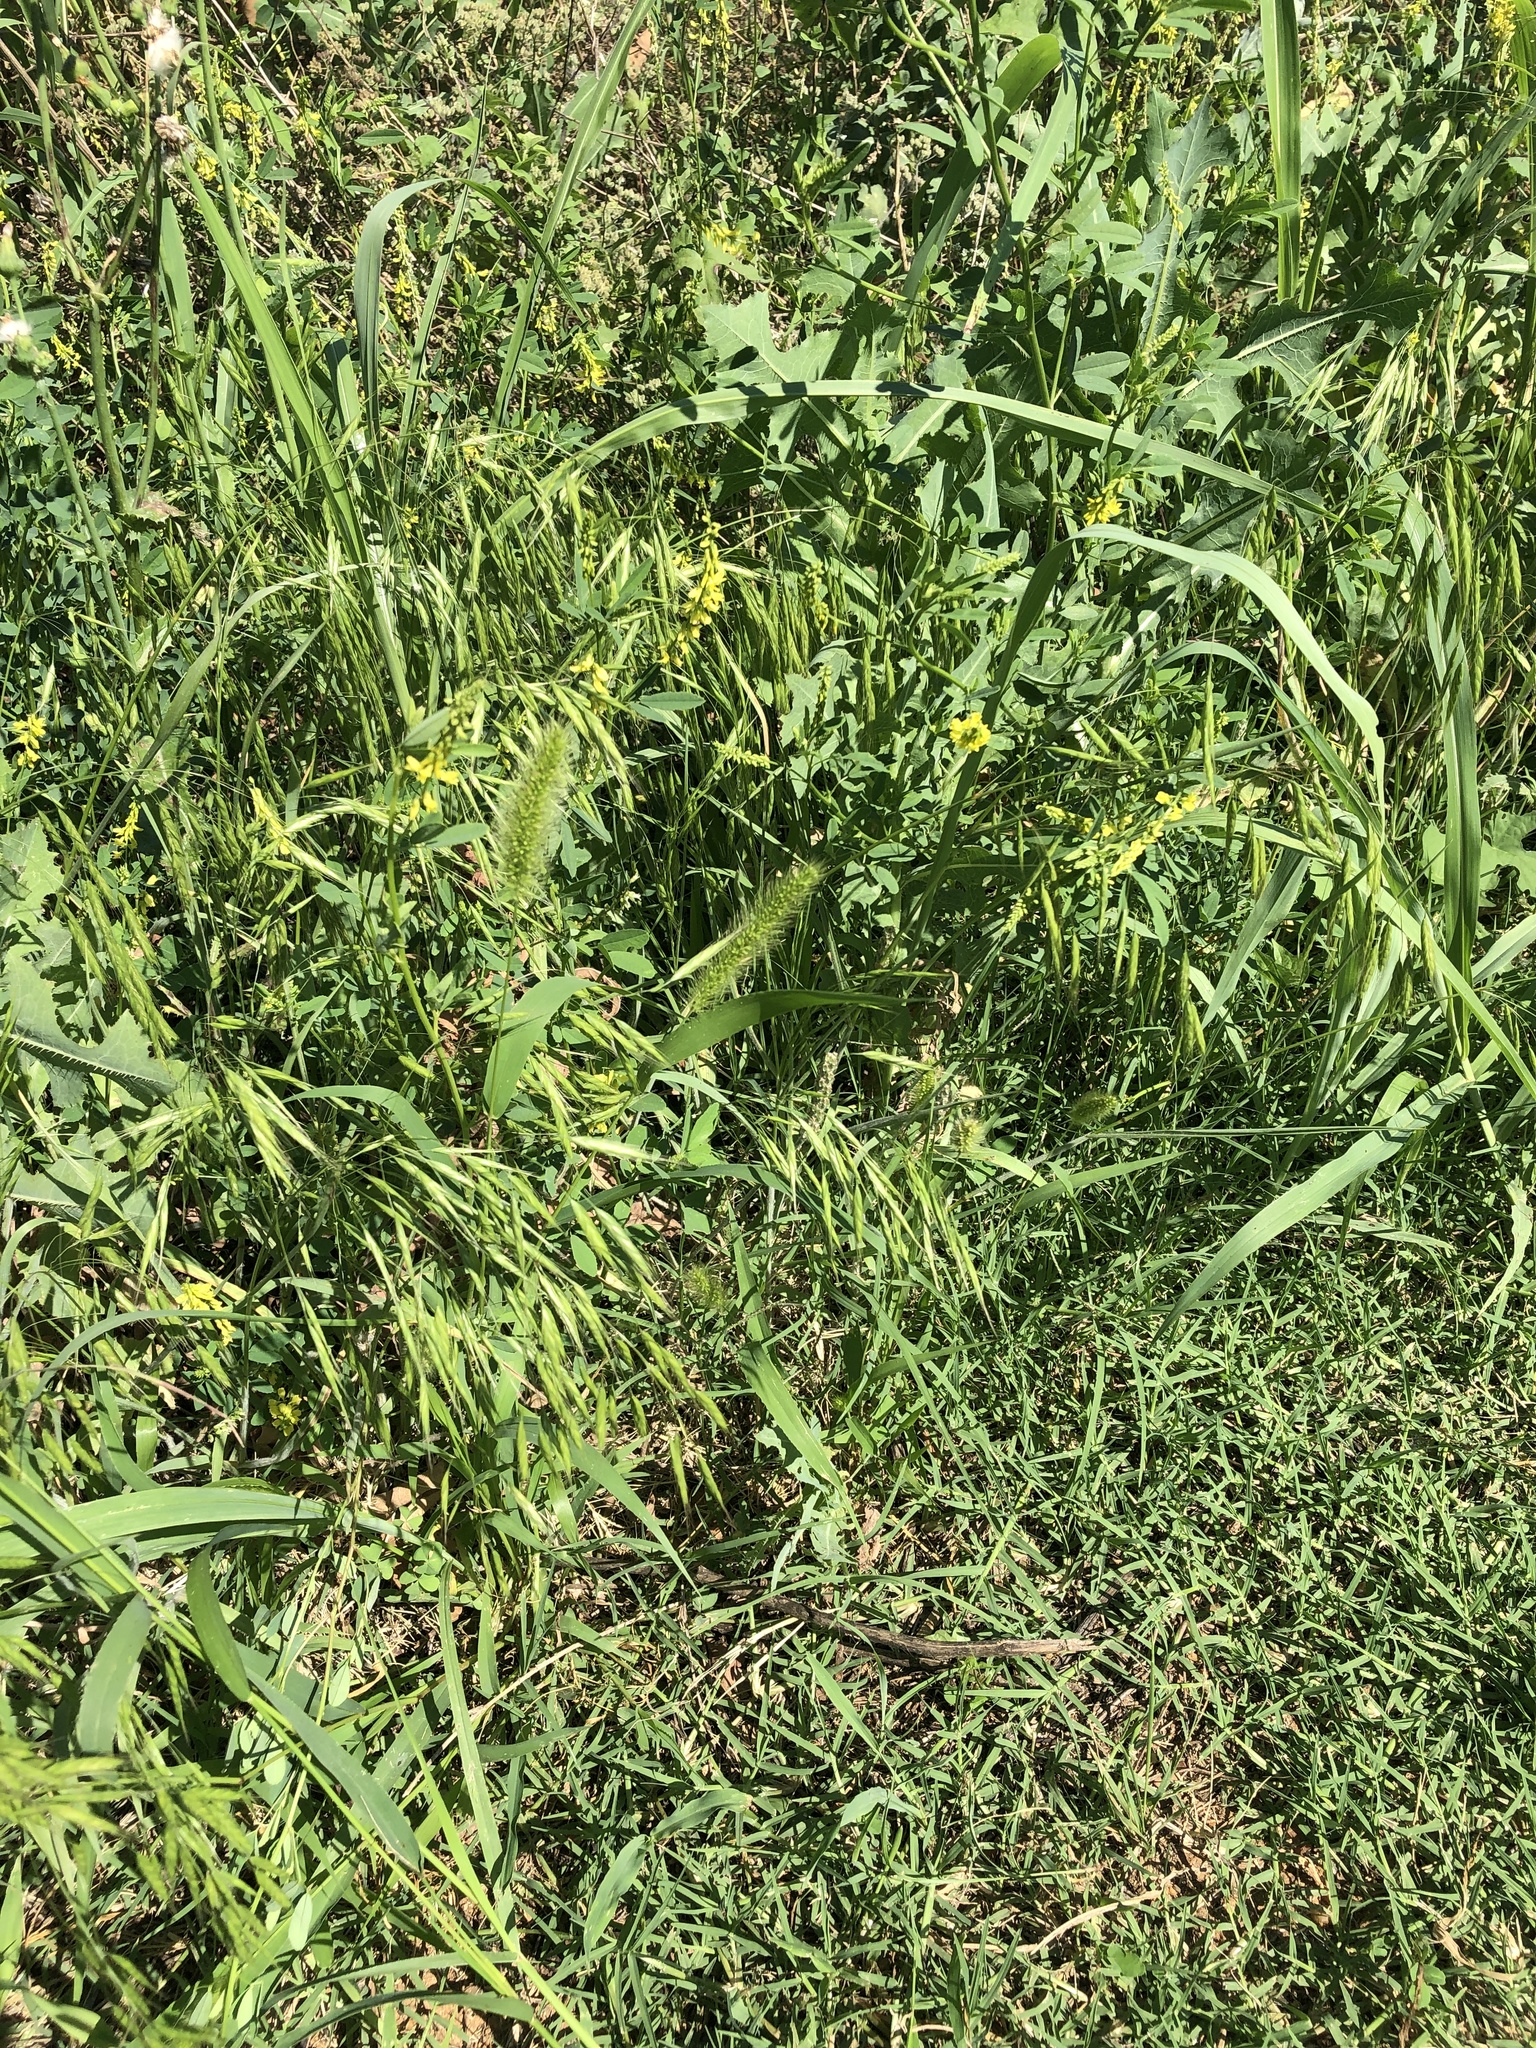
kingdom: Plantae
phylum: Tracheophyta
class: Liliopsida
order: Poales
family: Poaceae
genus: Setaria
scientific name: Setaria viridis
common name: Green bristlegrass
